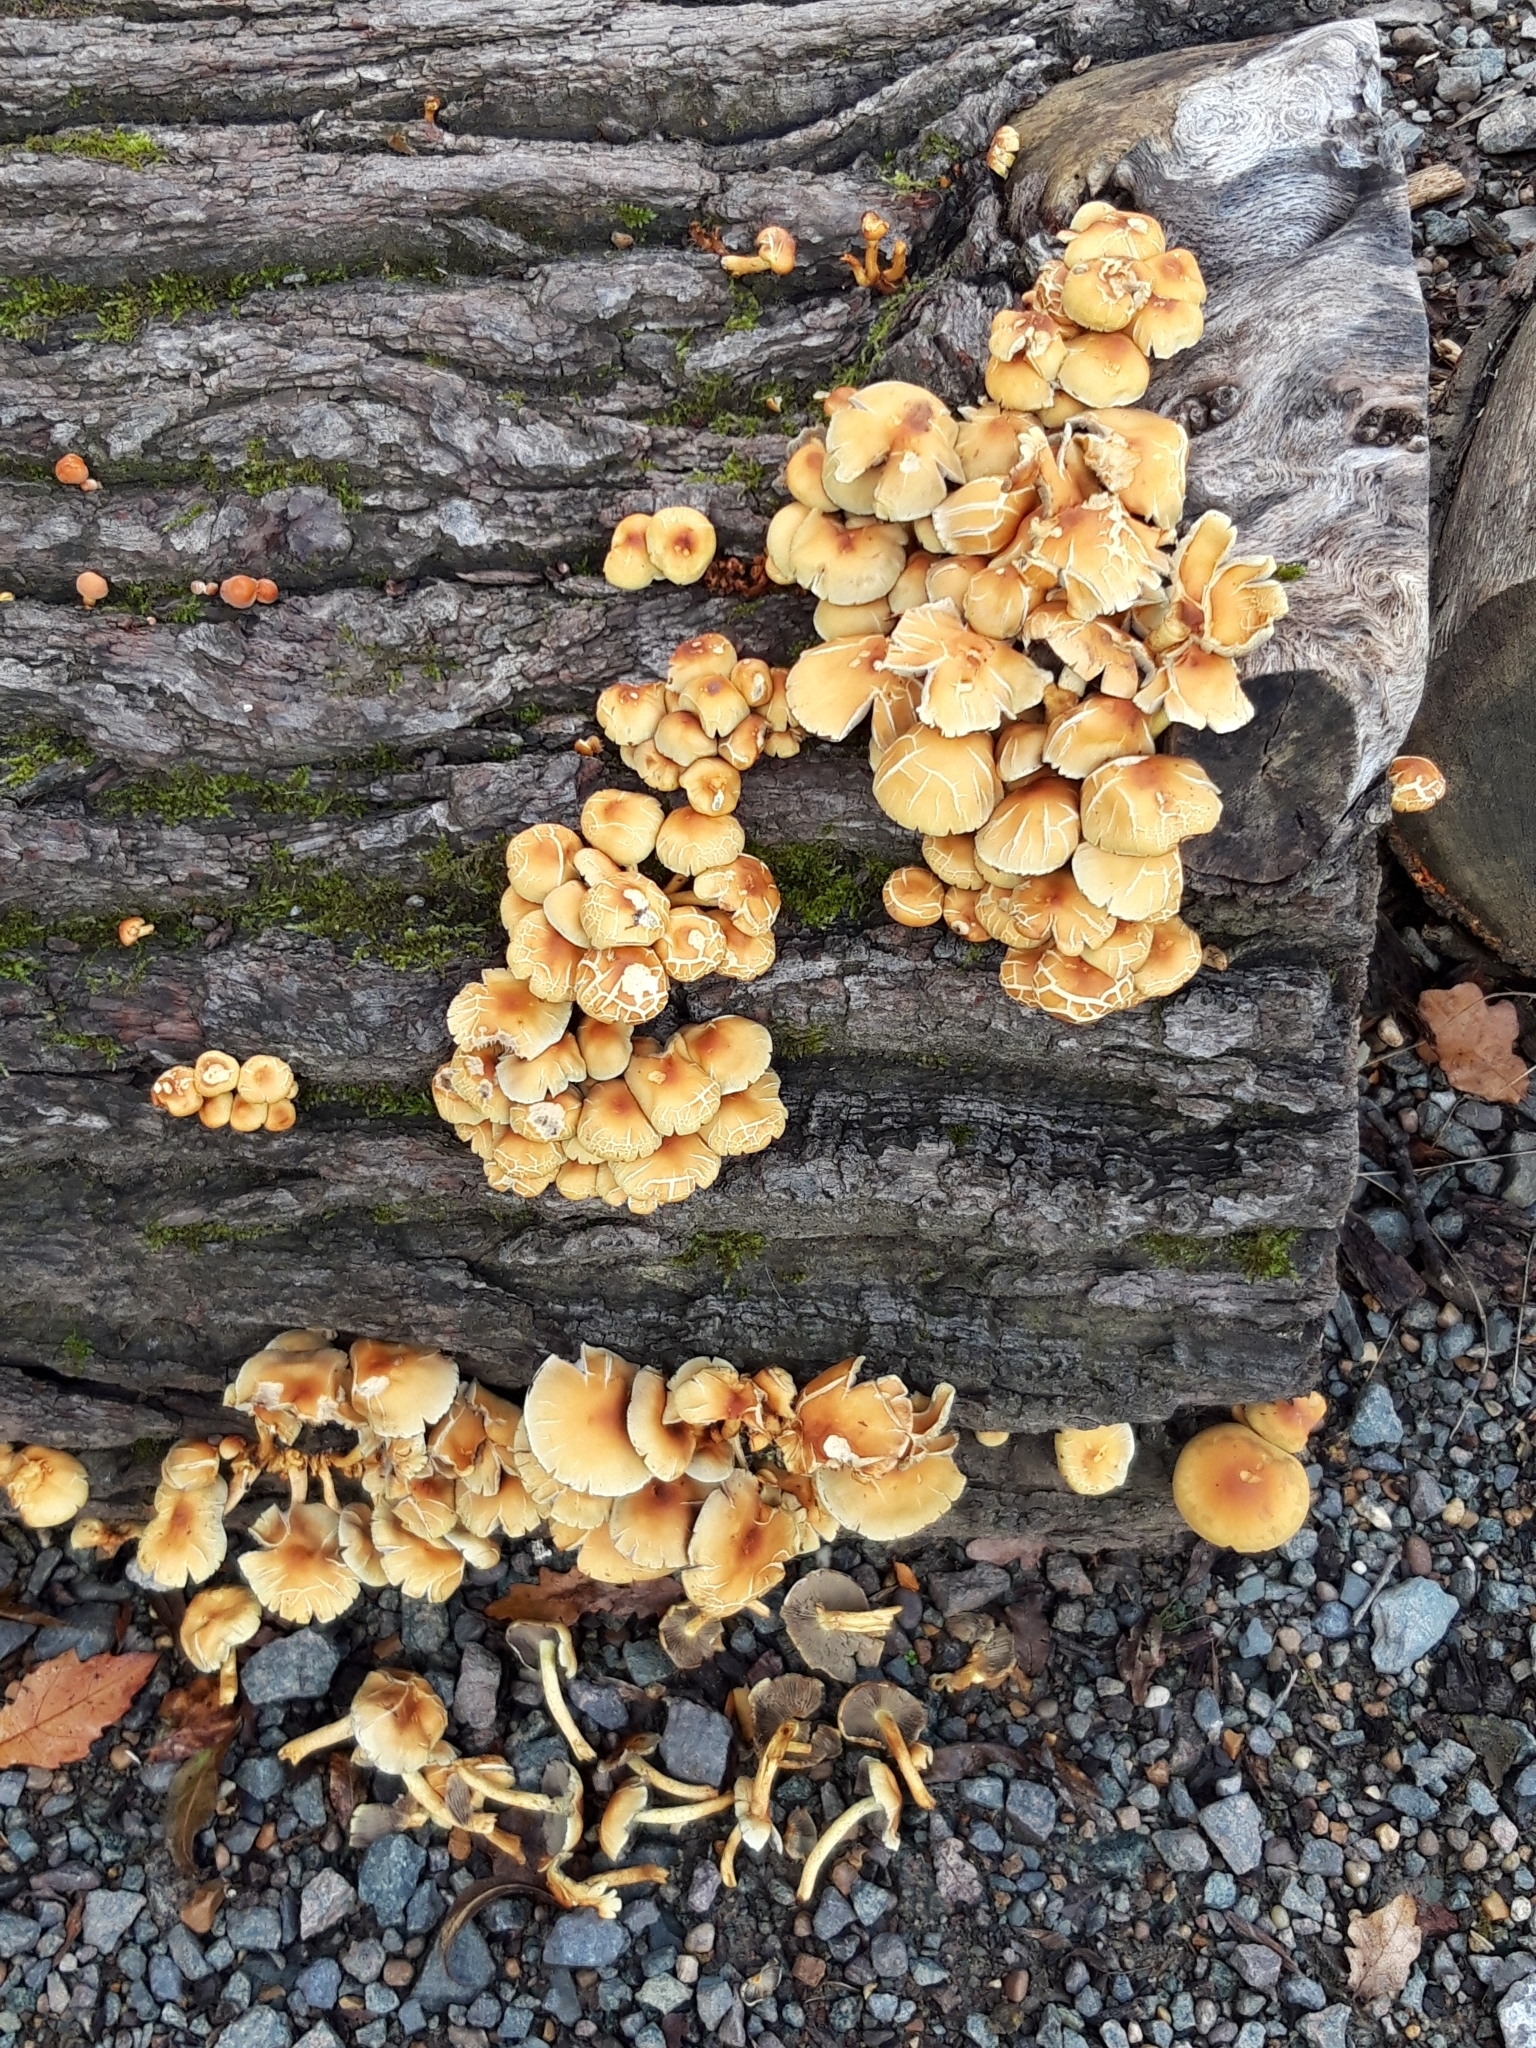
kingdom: Fungi
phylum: Basidiomycota
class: Agaricomycetes
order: Agaricales
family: Strophariaceae
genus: Hypholoma
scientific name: Hypholoma fasciculare
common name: Sulphur tuft
